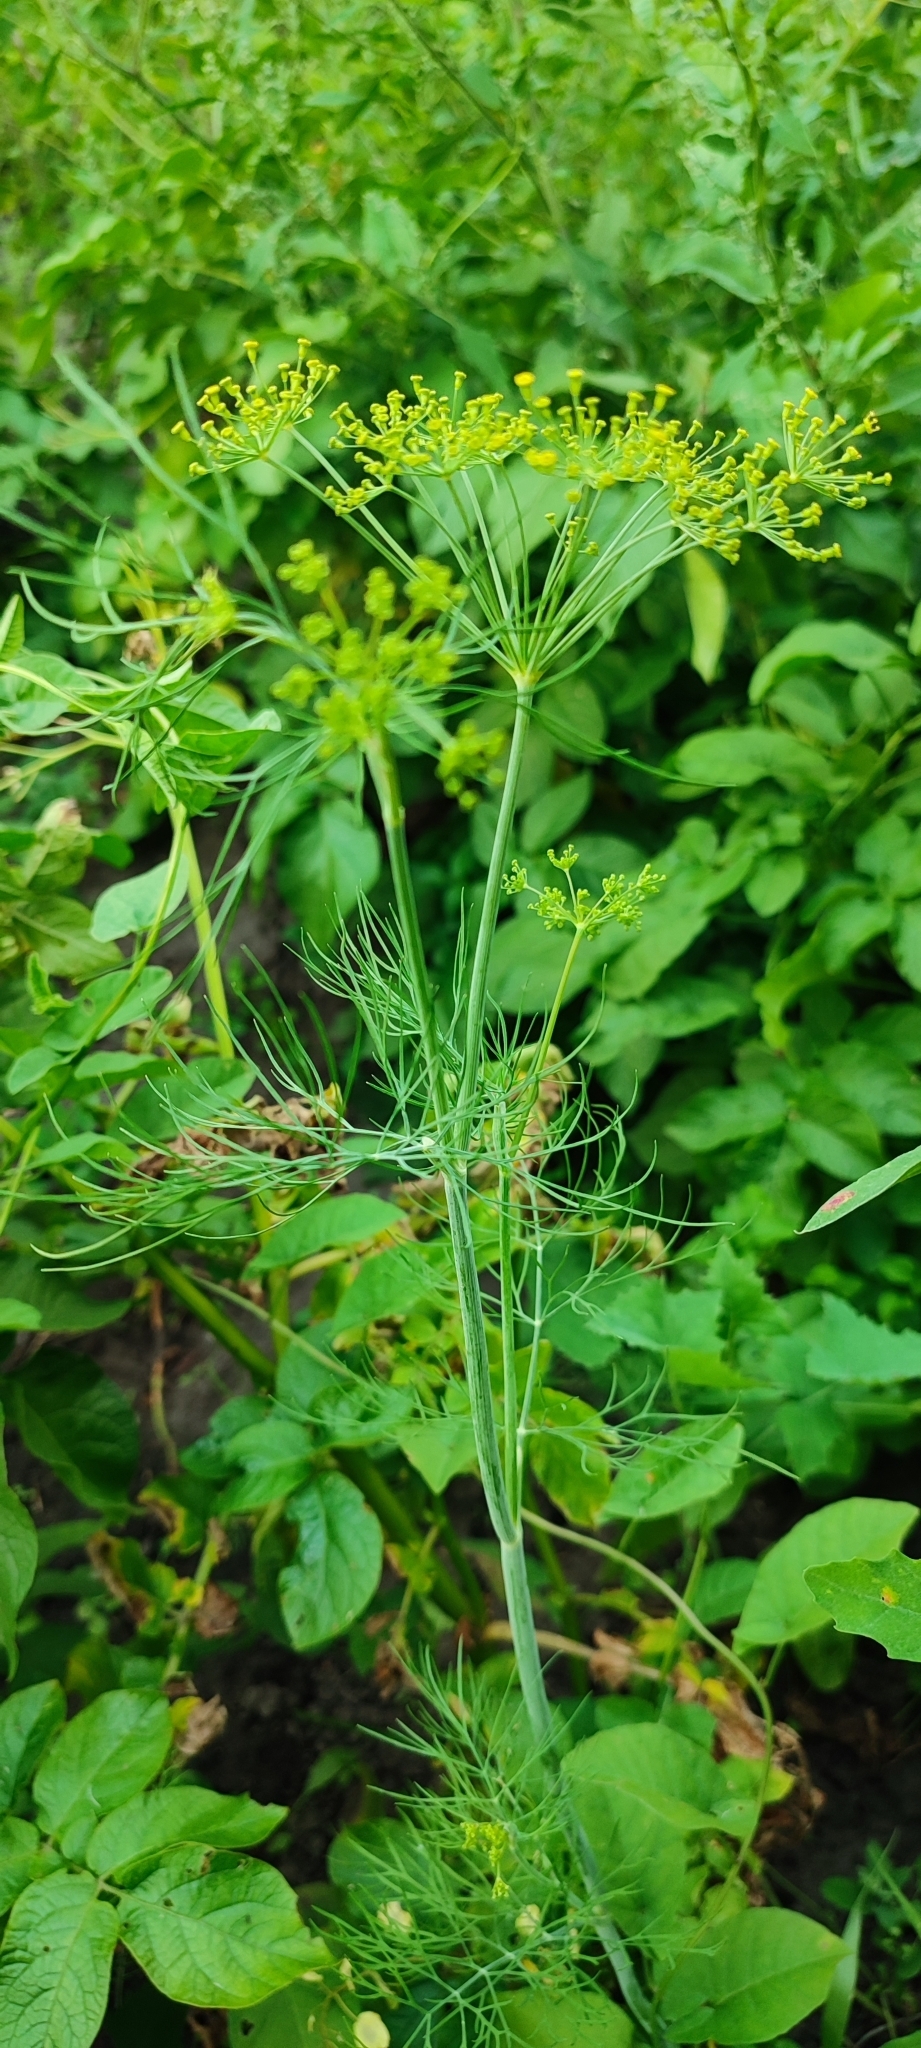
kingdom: Plantae
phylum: Tracheophyta
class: Magnoliopsida
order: Apiales
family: Apiaceae
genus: Anethum
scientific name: Anethum graveolens
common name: Dill
